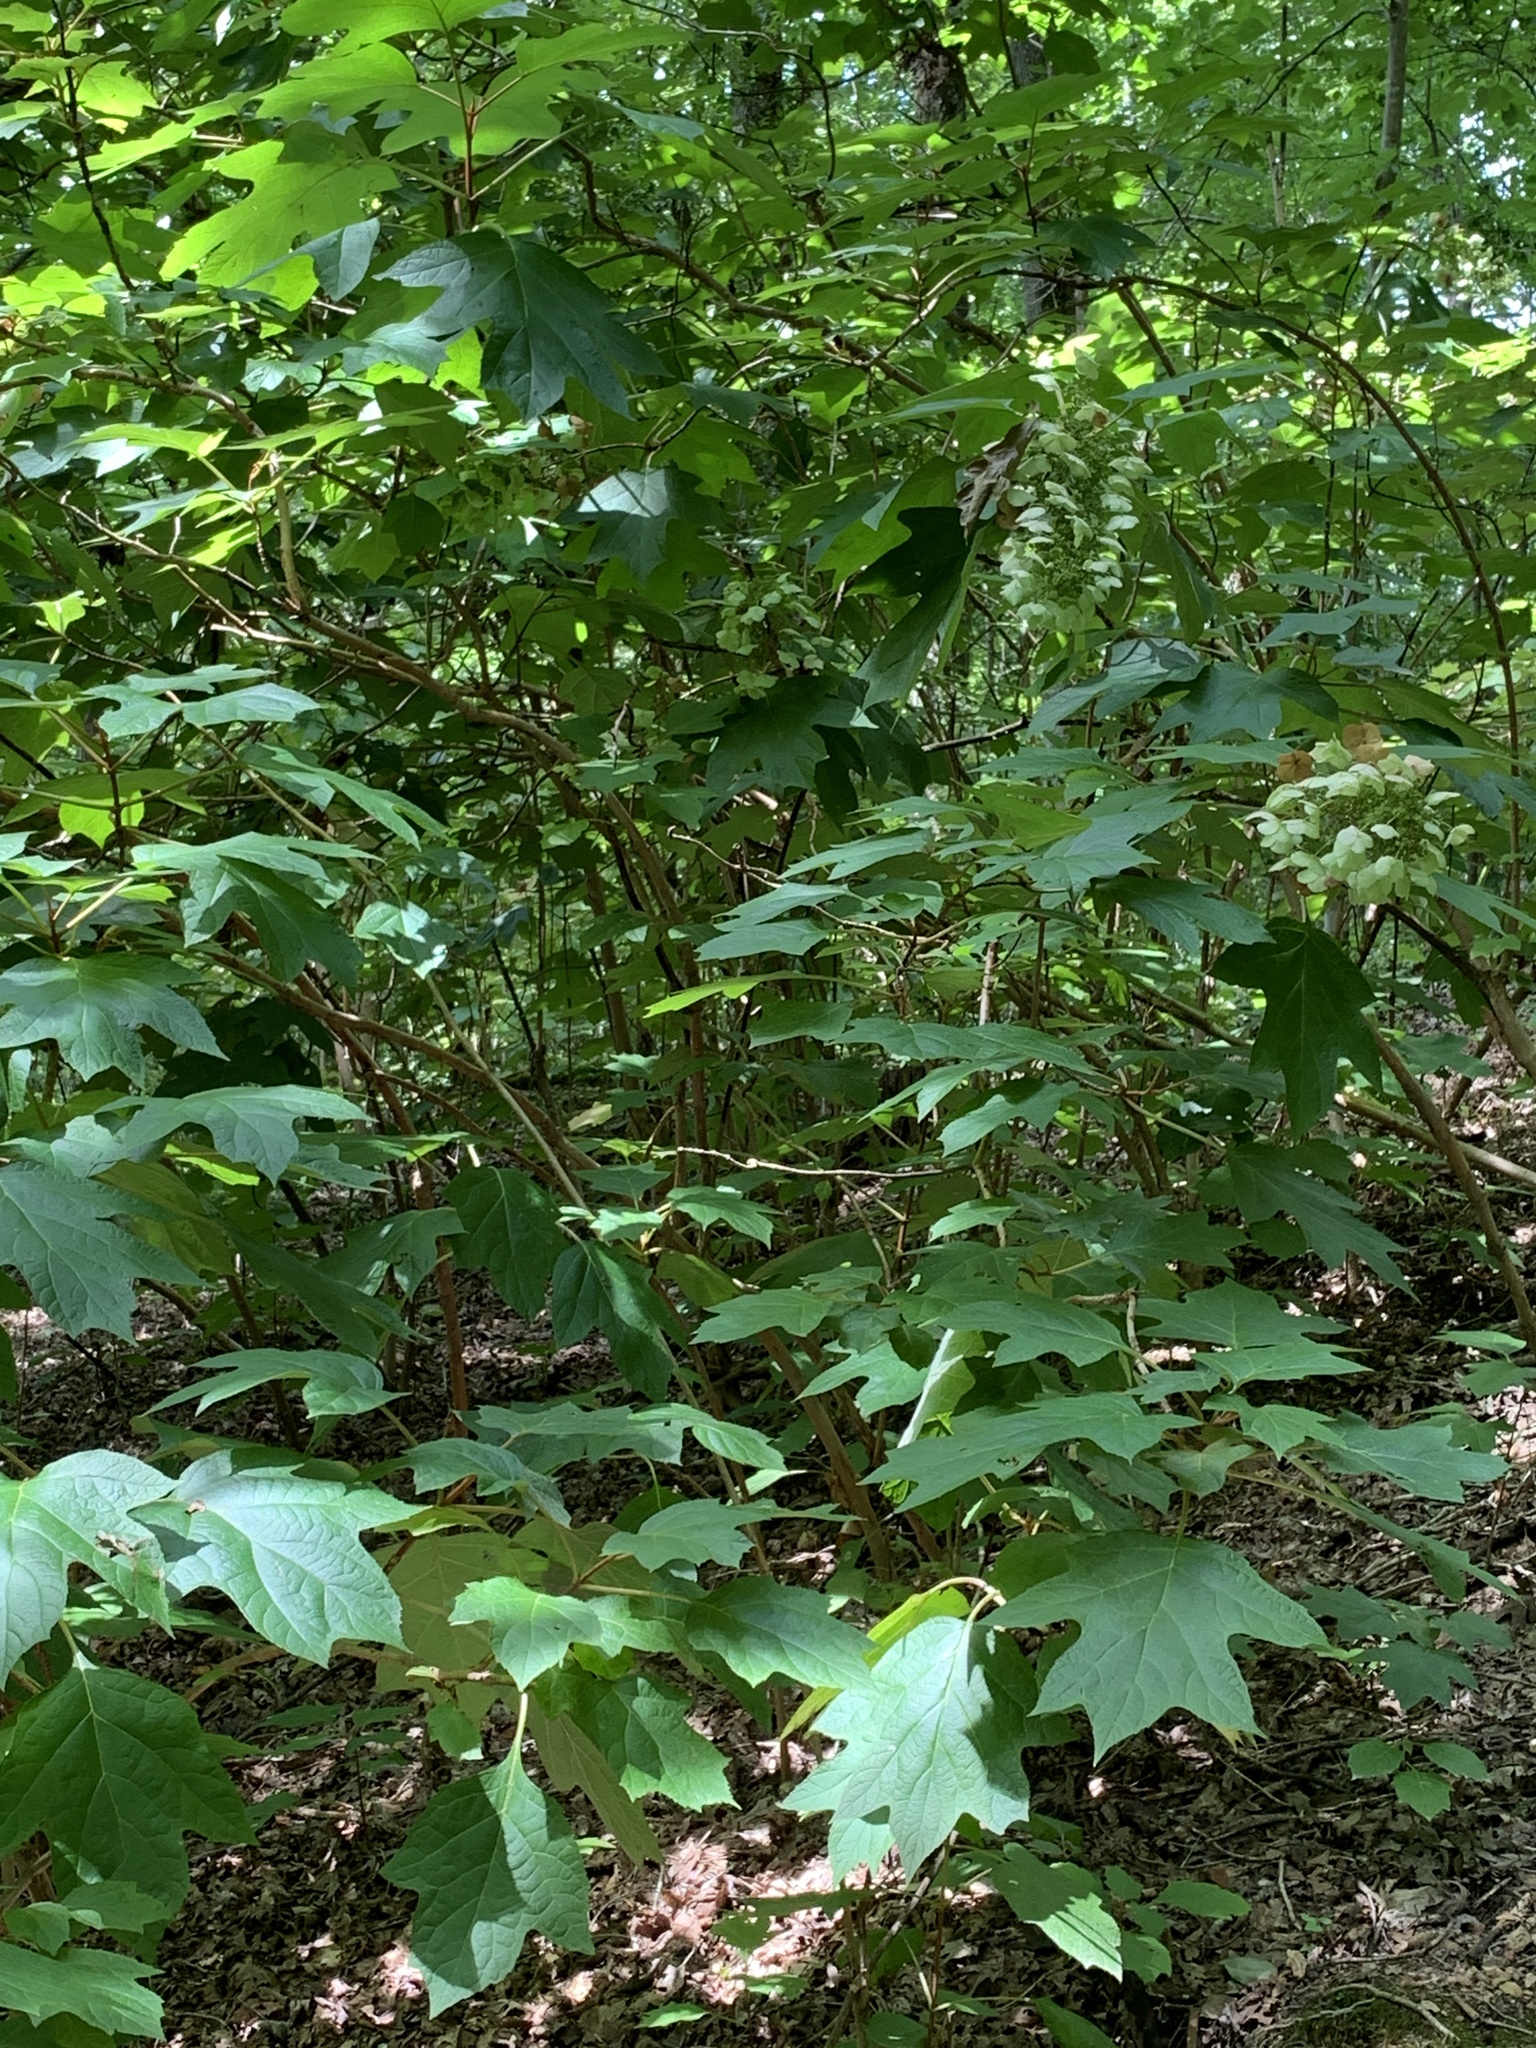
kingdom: Plantae
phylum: Tracheophyta
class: Magnoliopsida
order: Cornales
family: Hydrangeaceae
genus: Hydrangea
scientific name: Hydrangea quercifolia
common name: Oak-leaf hydrangea
